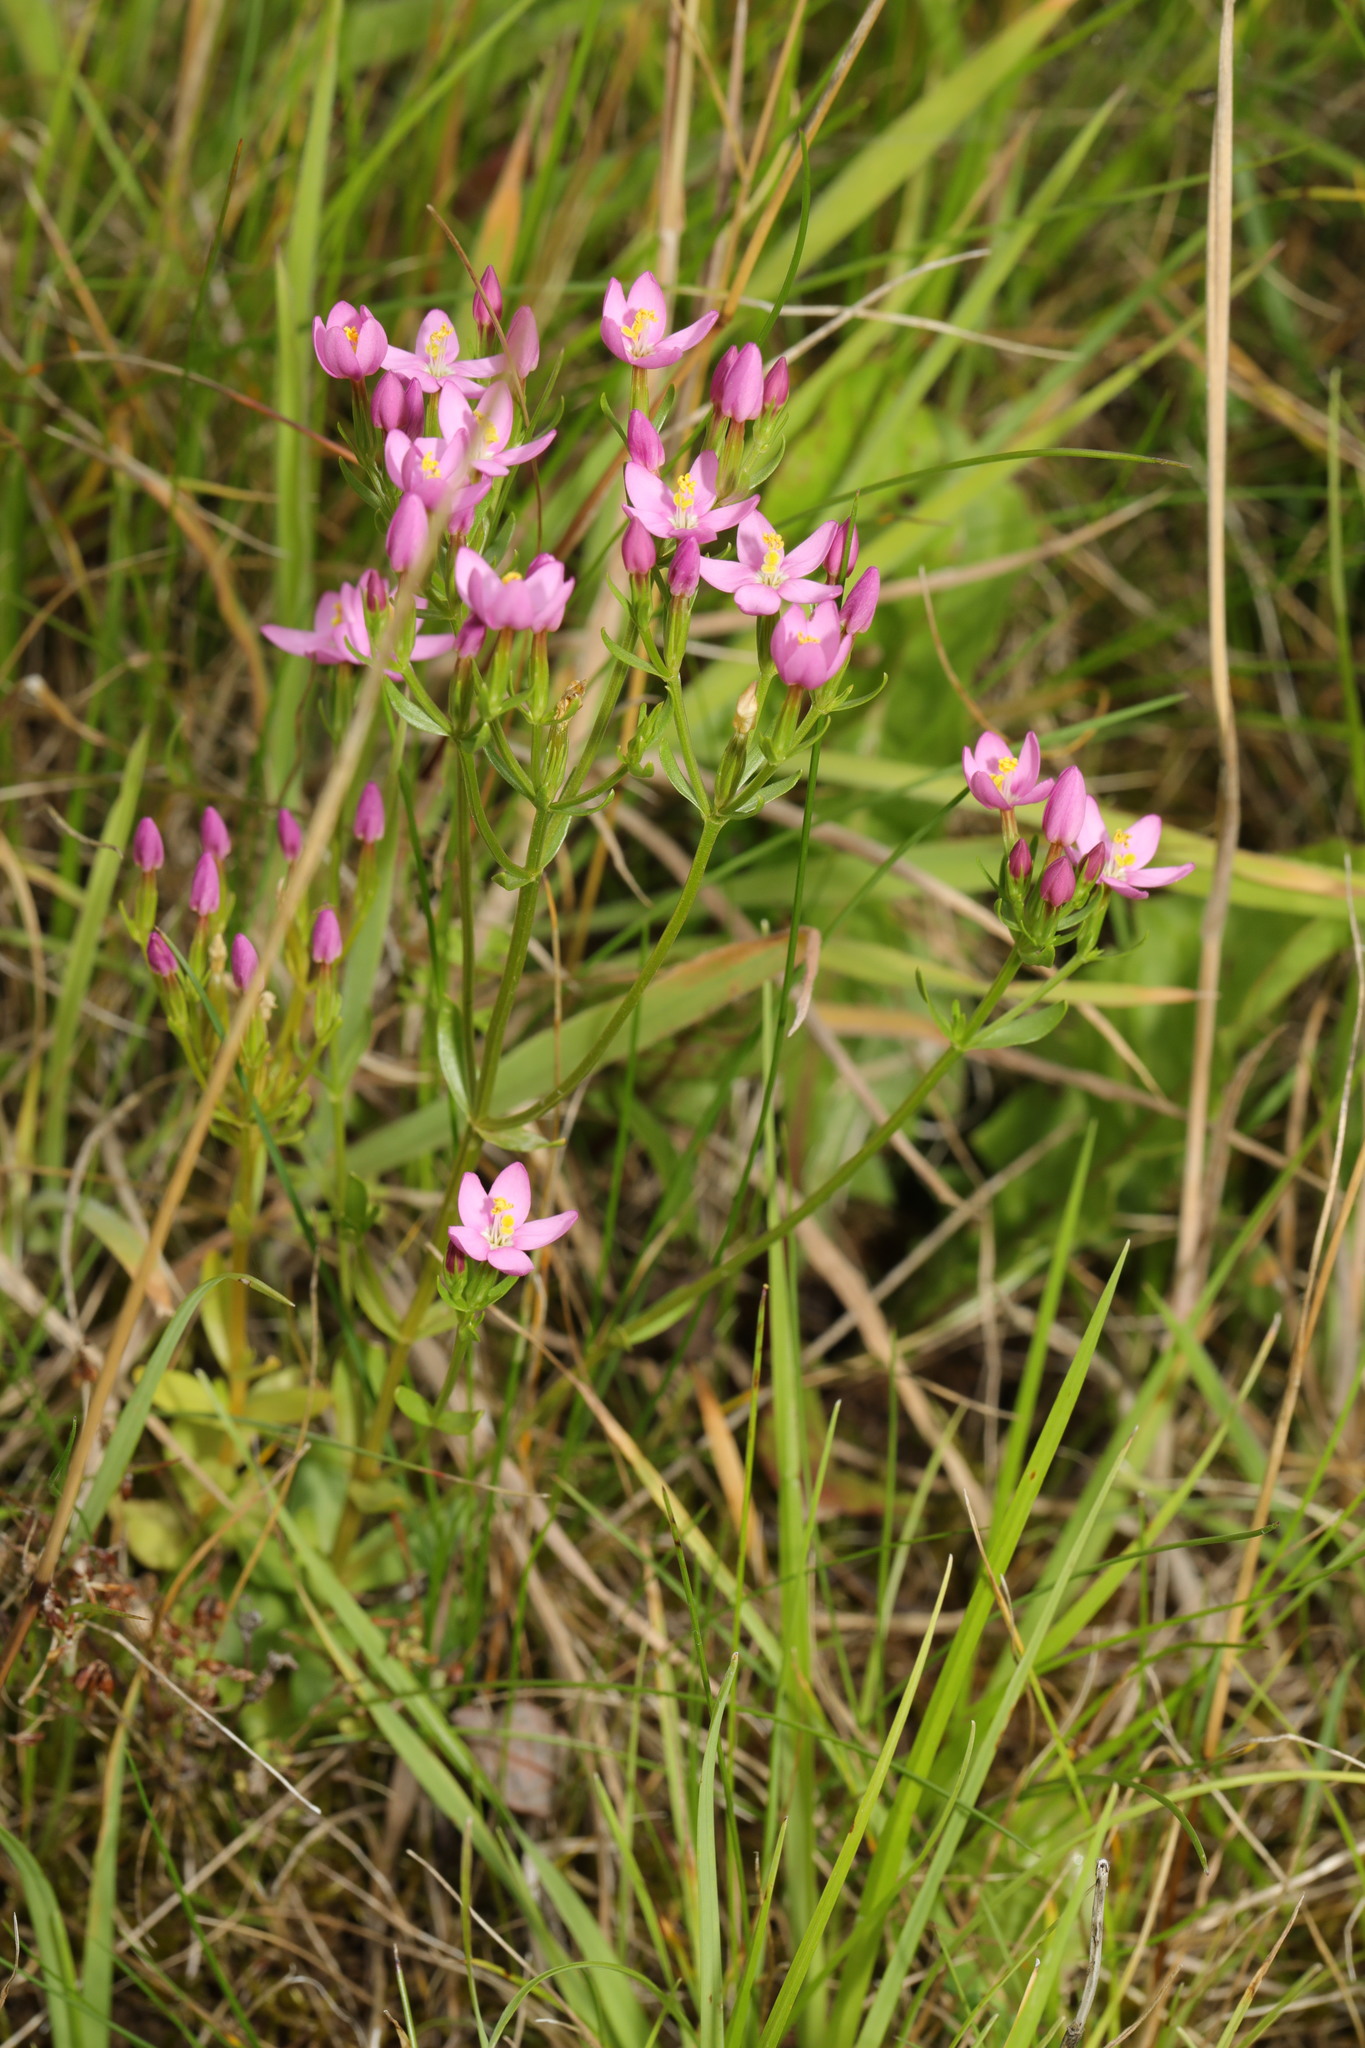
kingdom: Plantae
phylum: Tracheophyta
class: Magnoliopsida
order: Gentianales
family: Gentianaceae
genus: Centaurium
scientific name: Centaurium erythraea
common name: Common centaury
